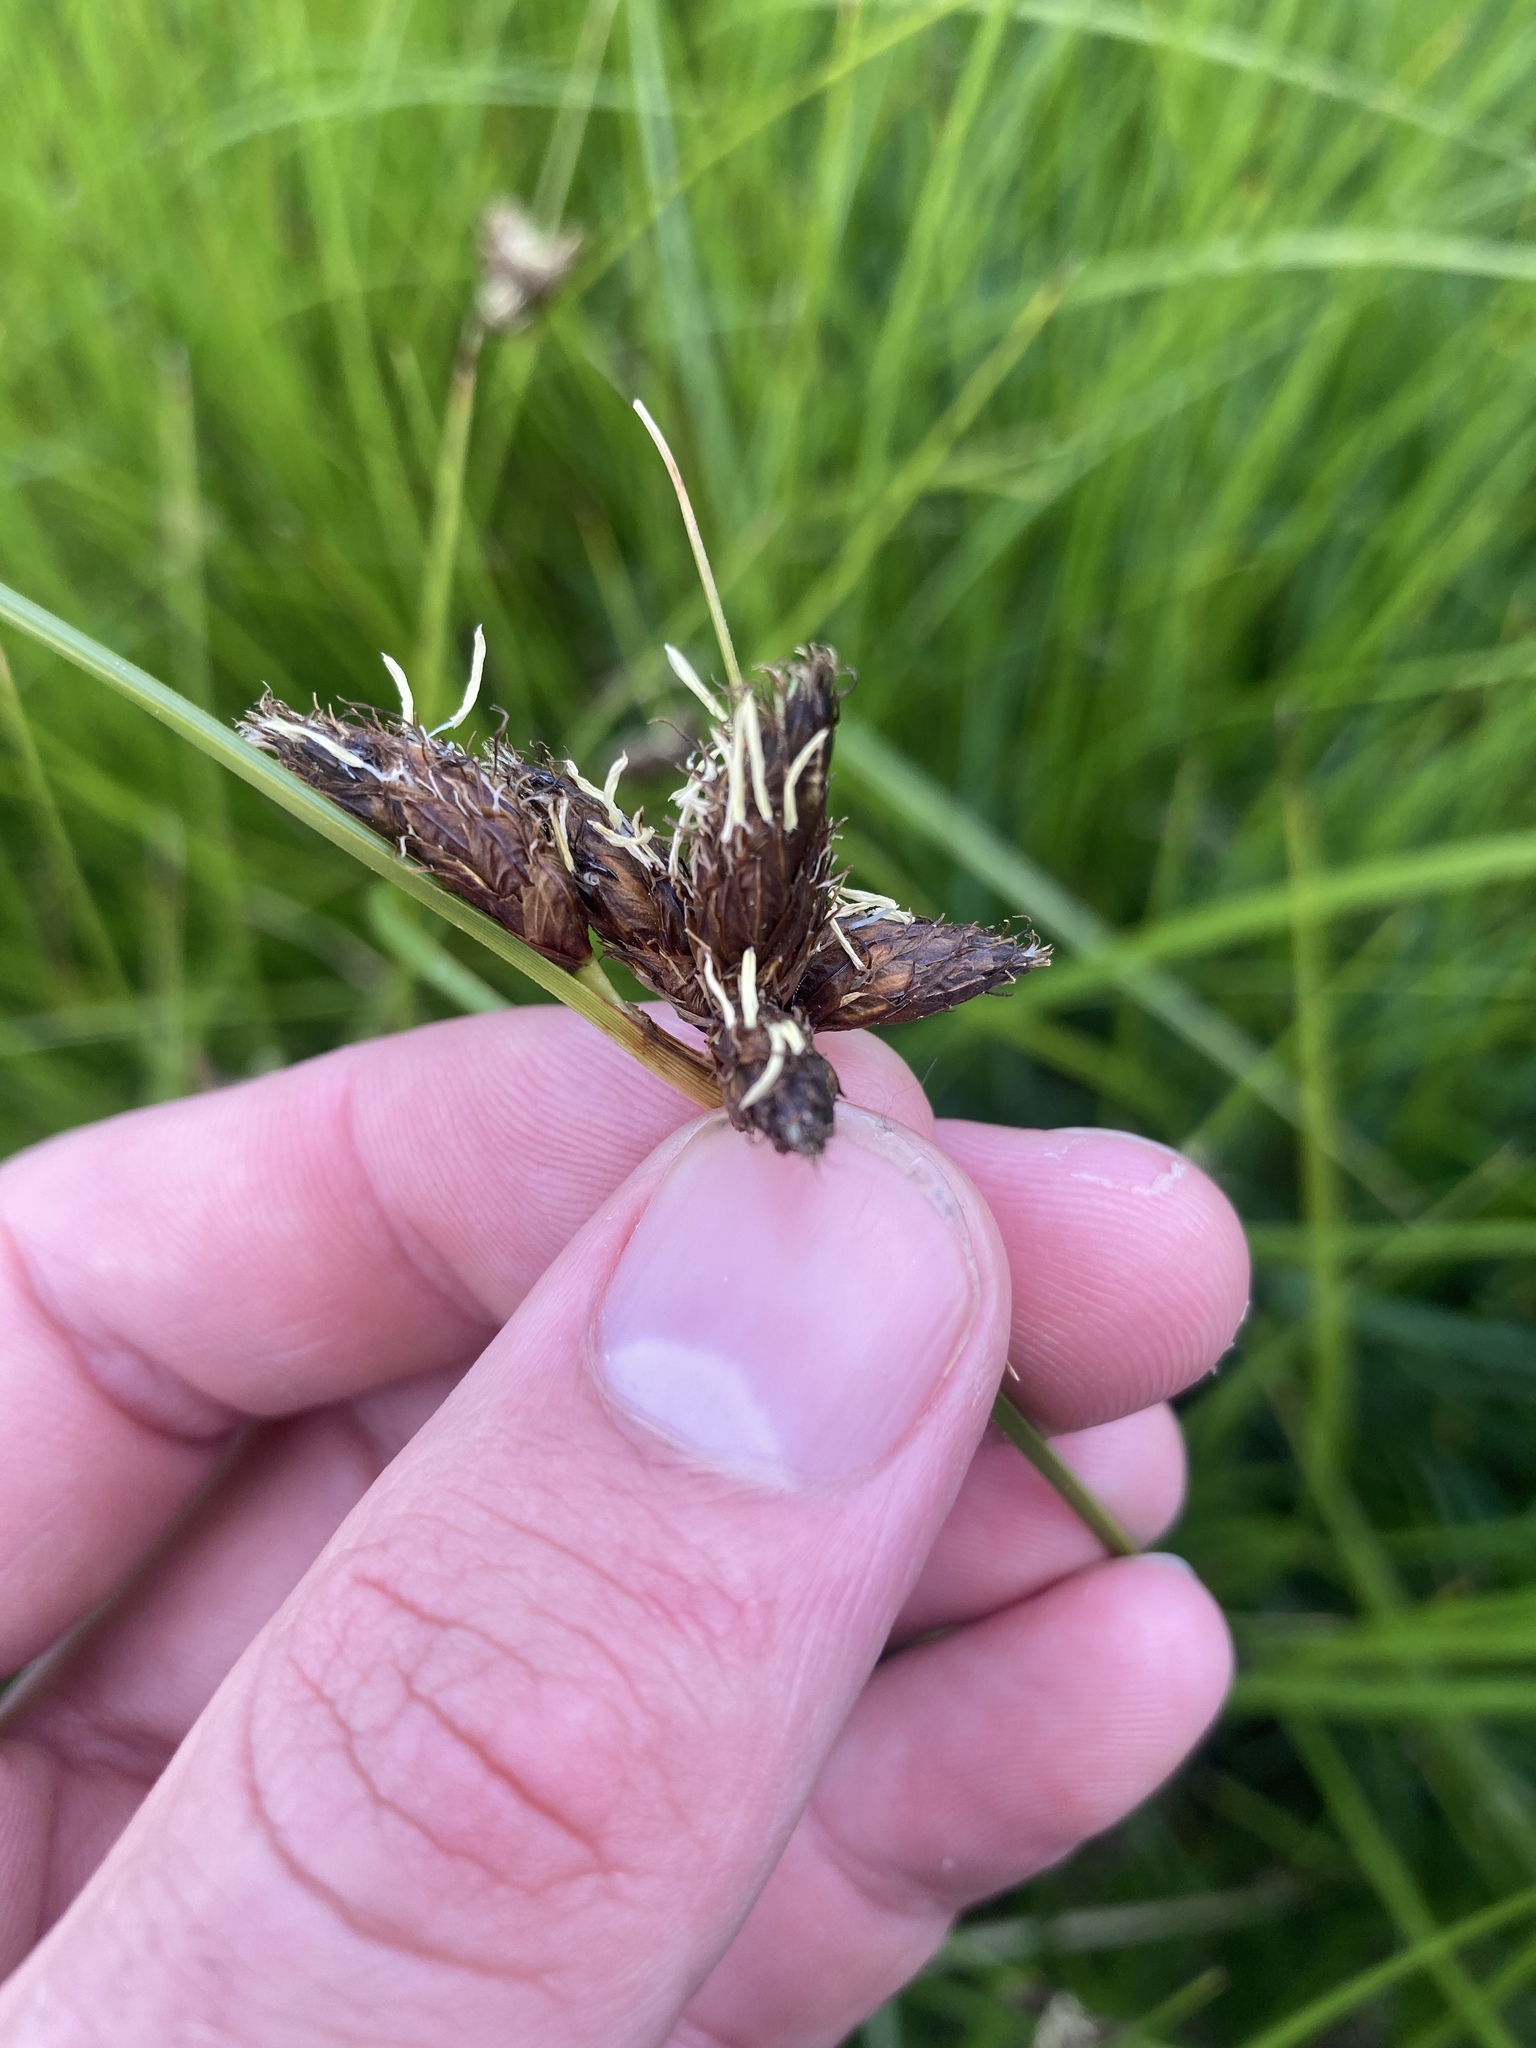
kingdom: Plantae
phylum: Tracheophyta
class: Liliopsida
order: Poales
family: Cyperaceae
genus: Bolboschoenus
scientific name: Bolboschoenus maritimus
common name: Sea club-rush
